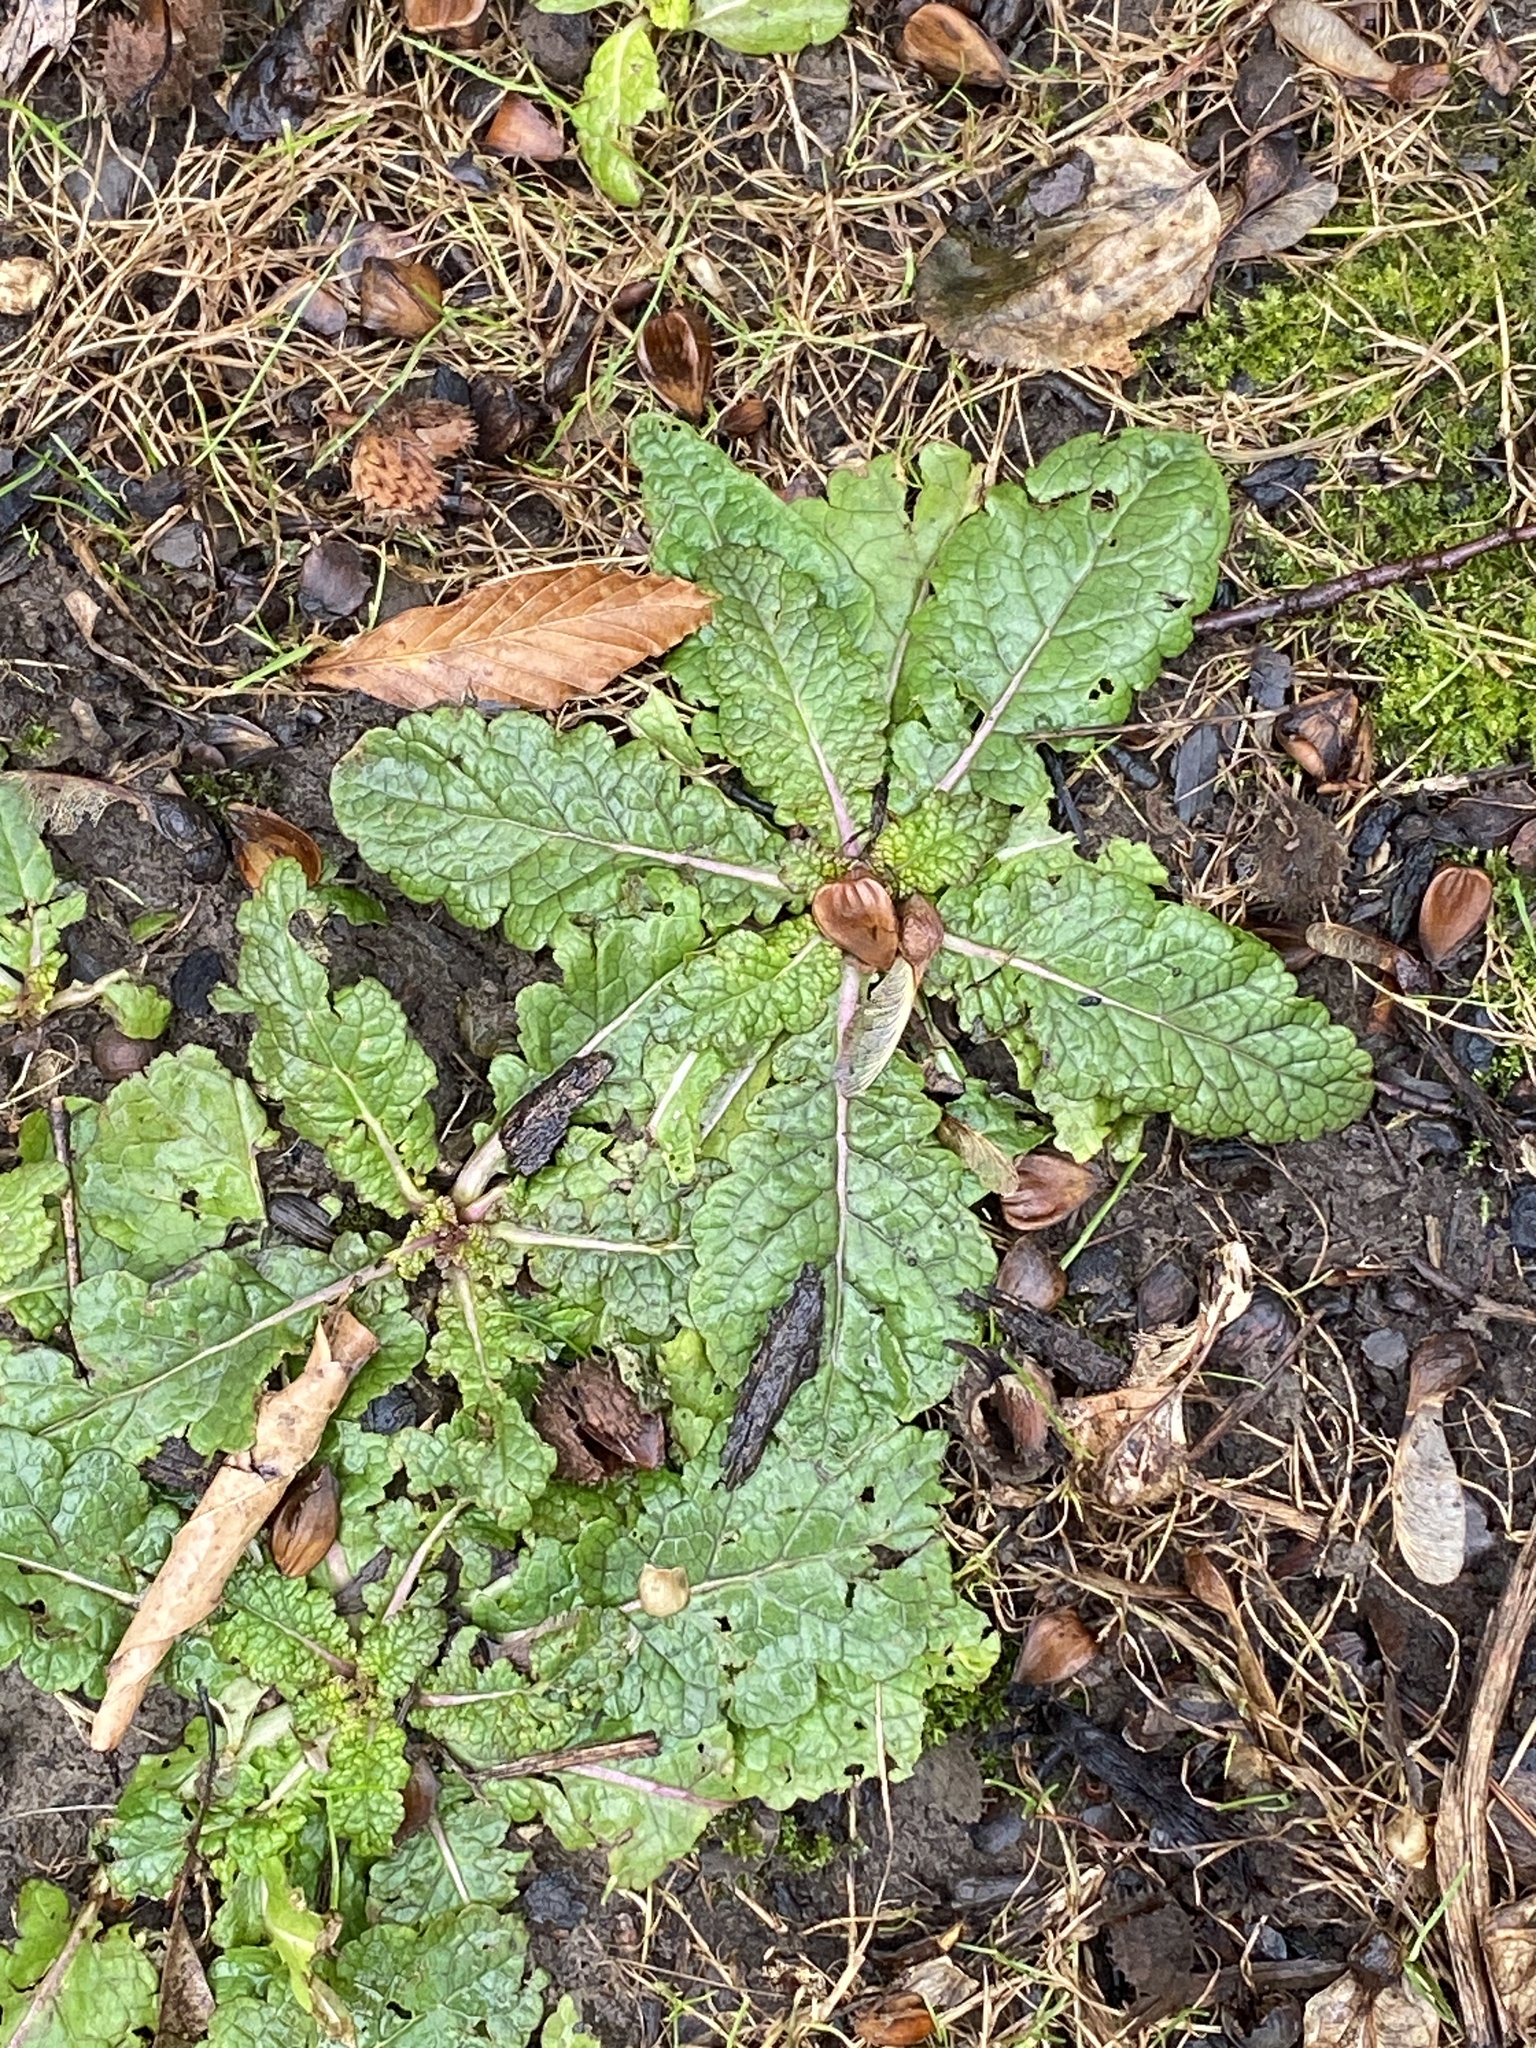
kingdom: Plantae
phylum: Tracheophyta
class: Magnoliopsida
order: Lamiales
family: Scrophulariaceae
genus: Verbascum
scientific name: Verbascum blattaria
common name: Moth mullein
